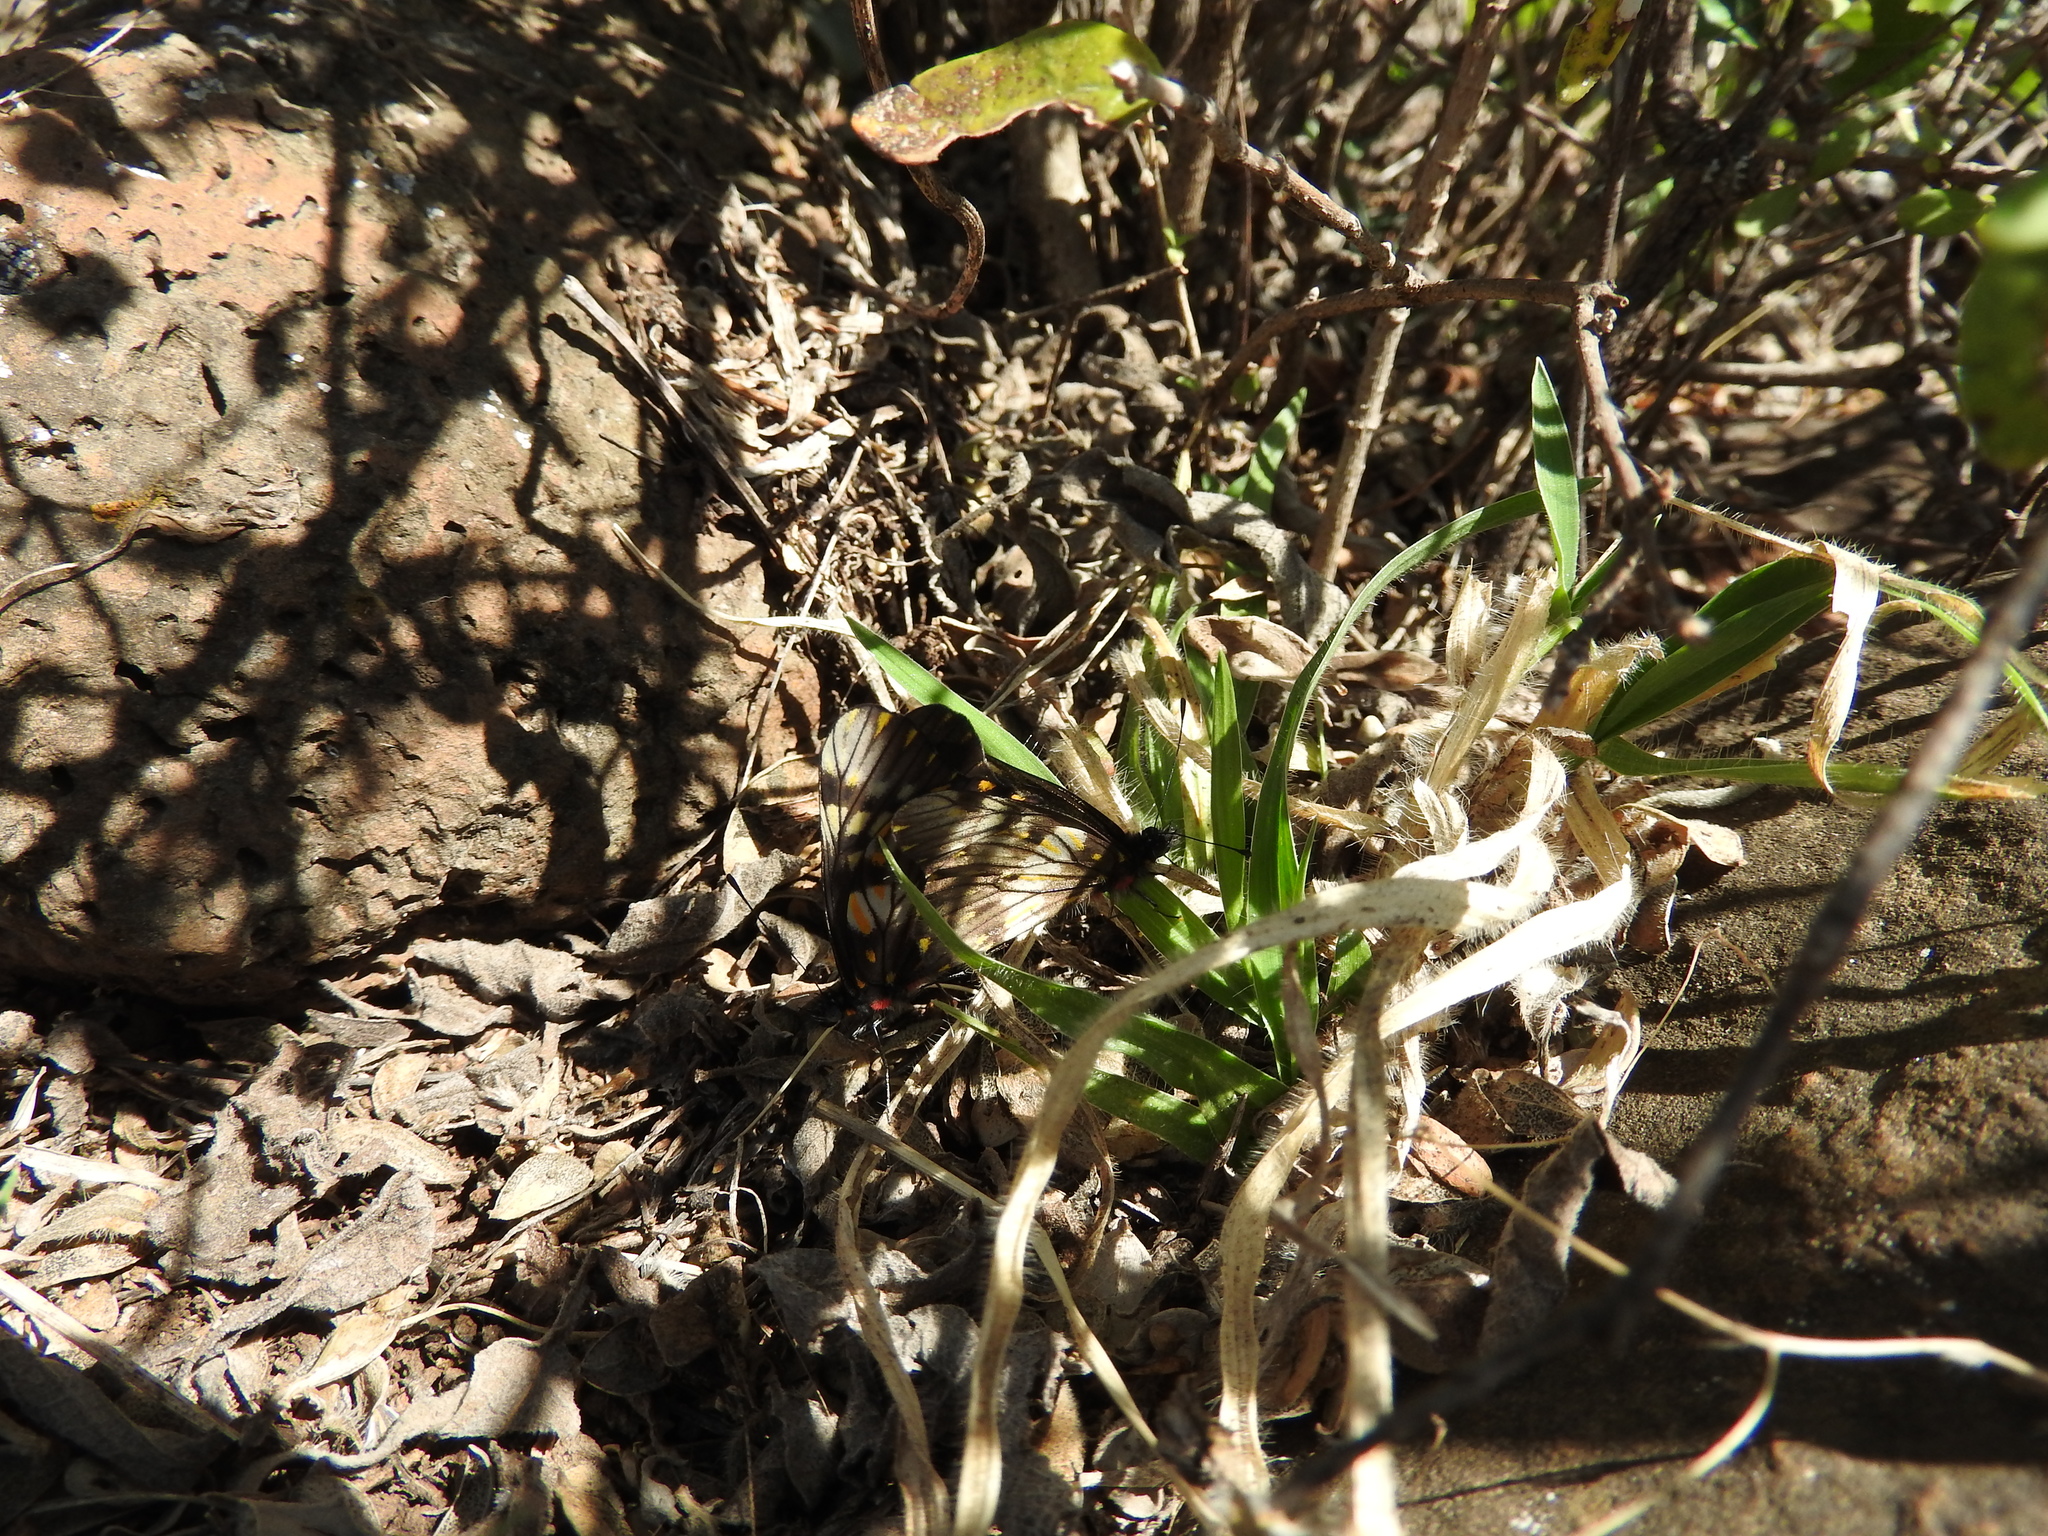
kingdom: Animalia
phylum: Arthropoda
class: Insecta
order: Lepidoptera
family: Pieridae
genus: Archonias
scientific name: Archonias nimbice
